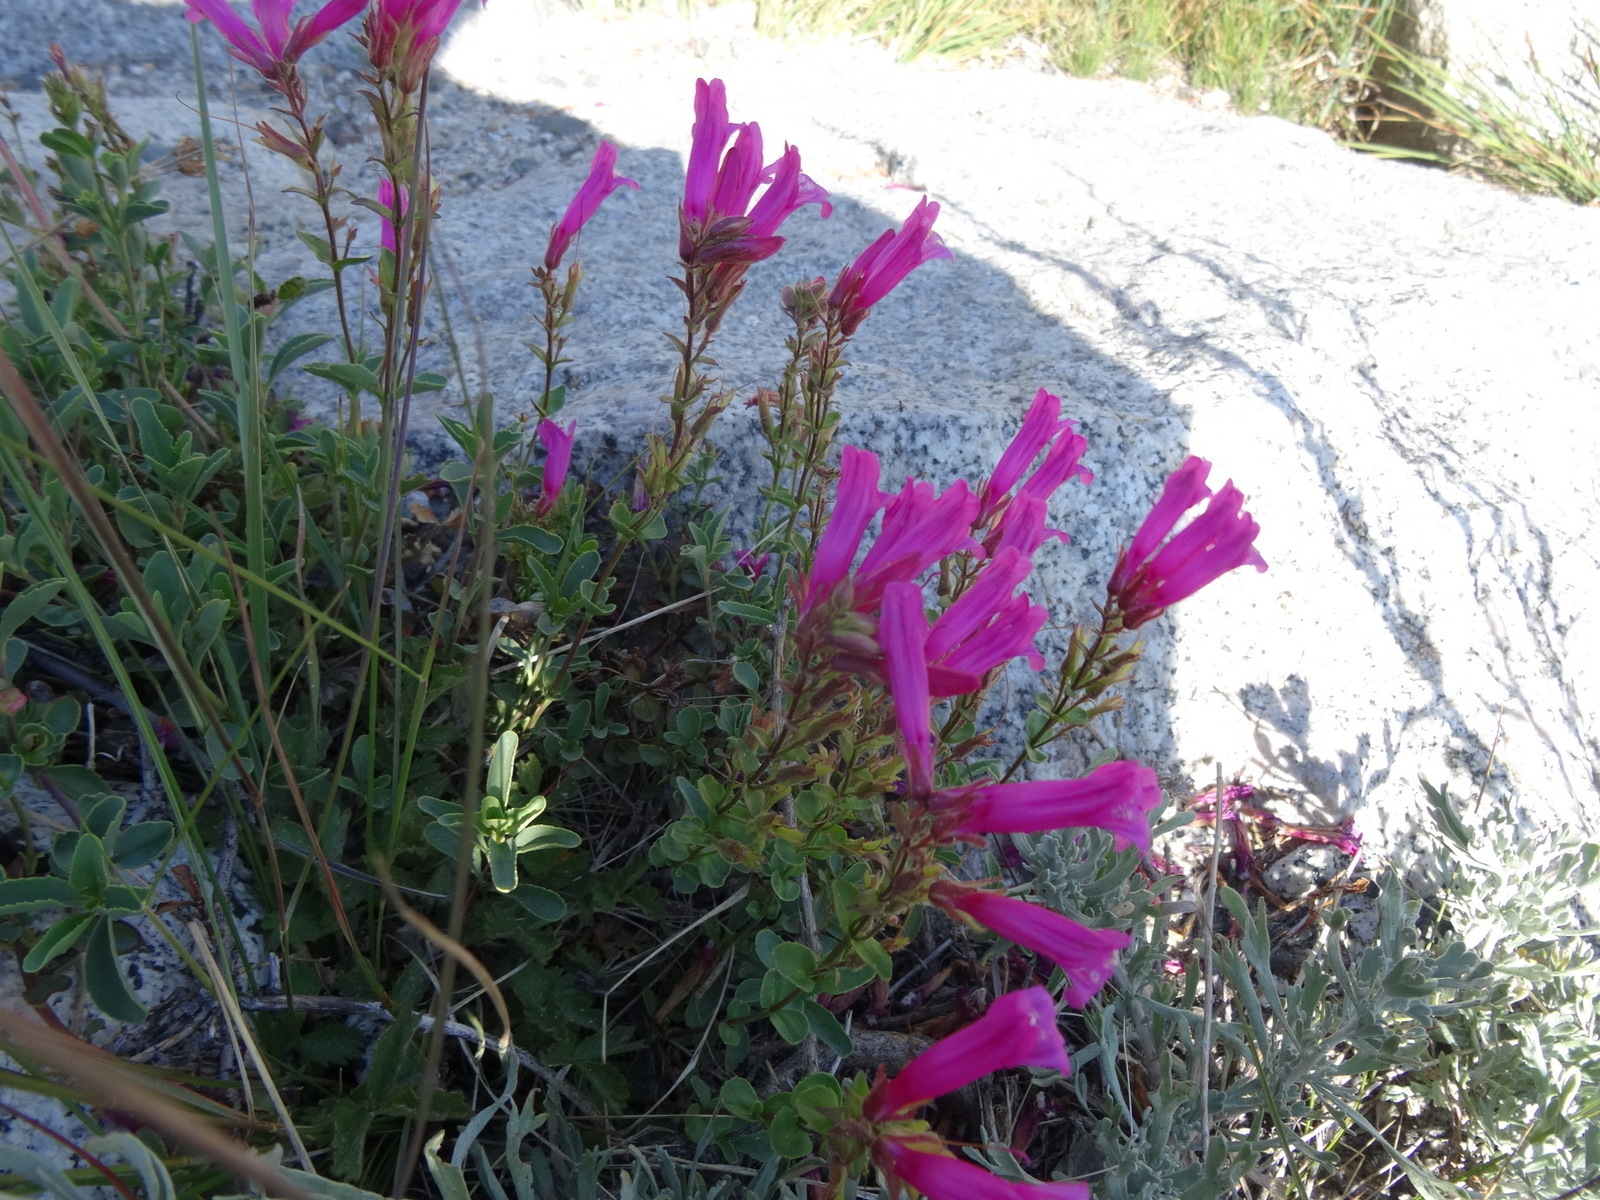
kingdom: Plantae
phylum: Tracheophyta
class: Magnoliopsida
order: Lamiales
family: Plantaginaceae
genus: Penstemon
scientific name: Penstemon newberryi
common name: Mountain-pride
